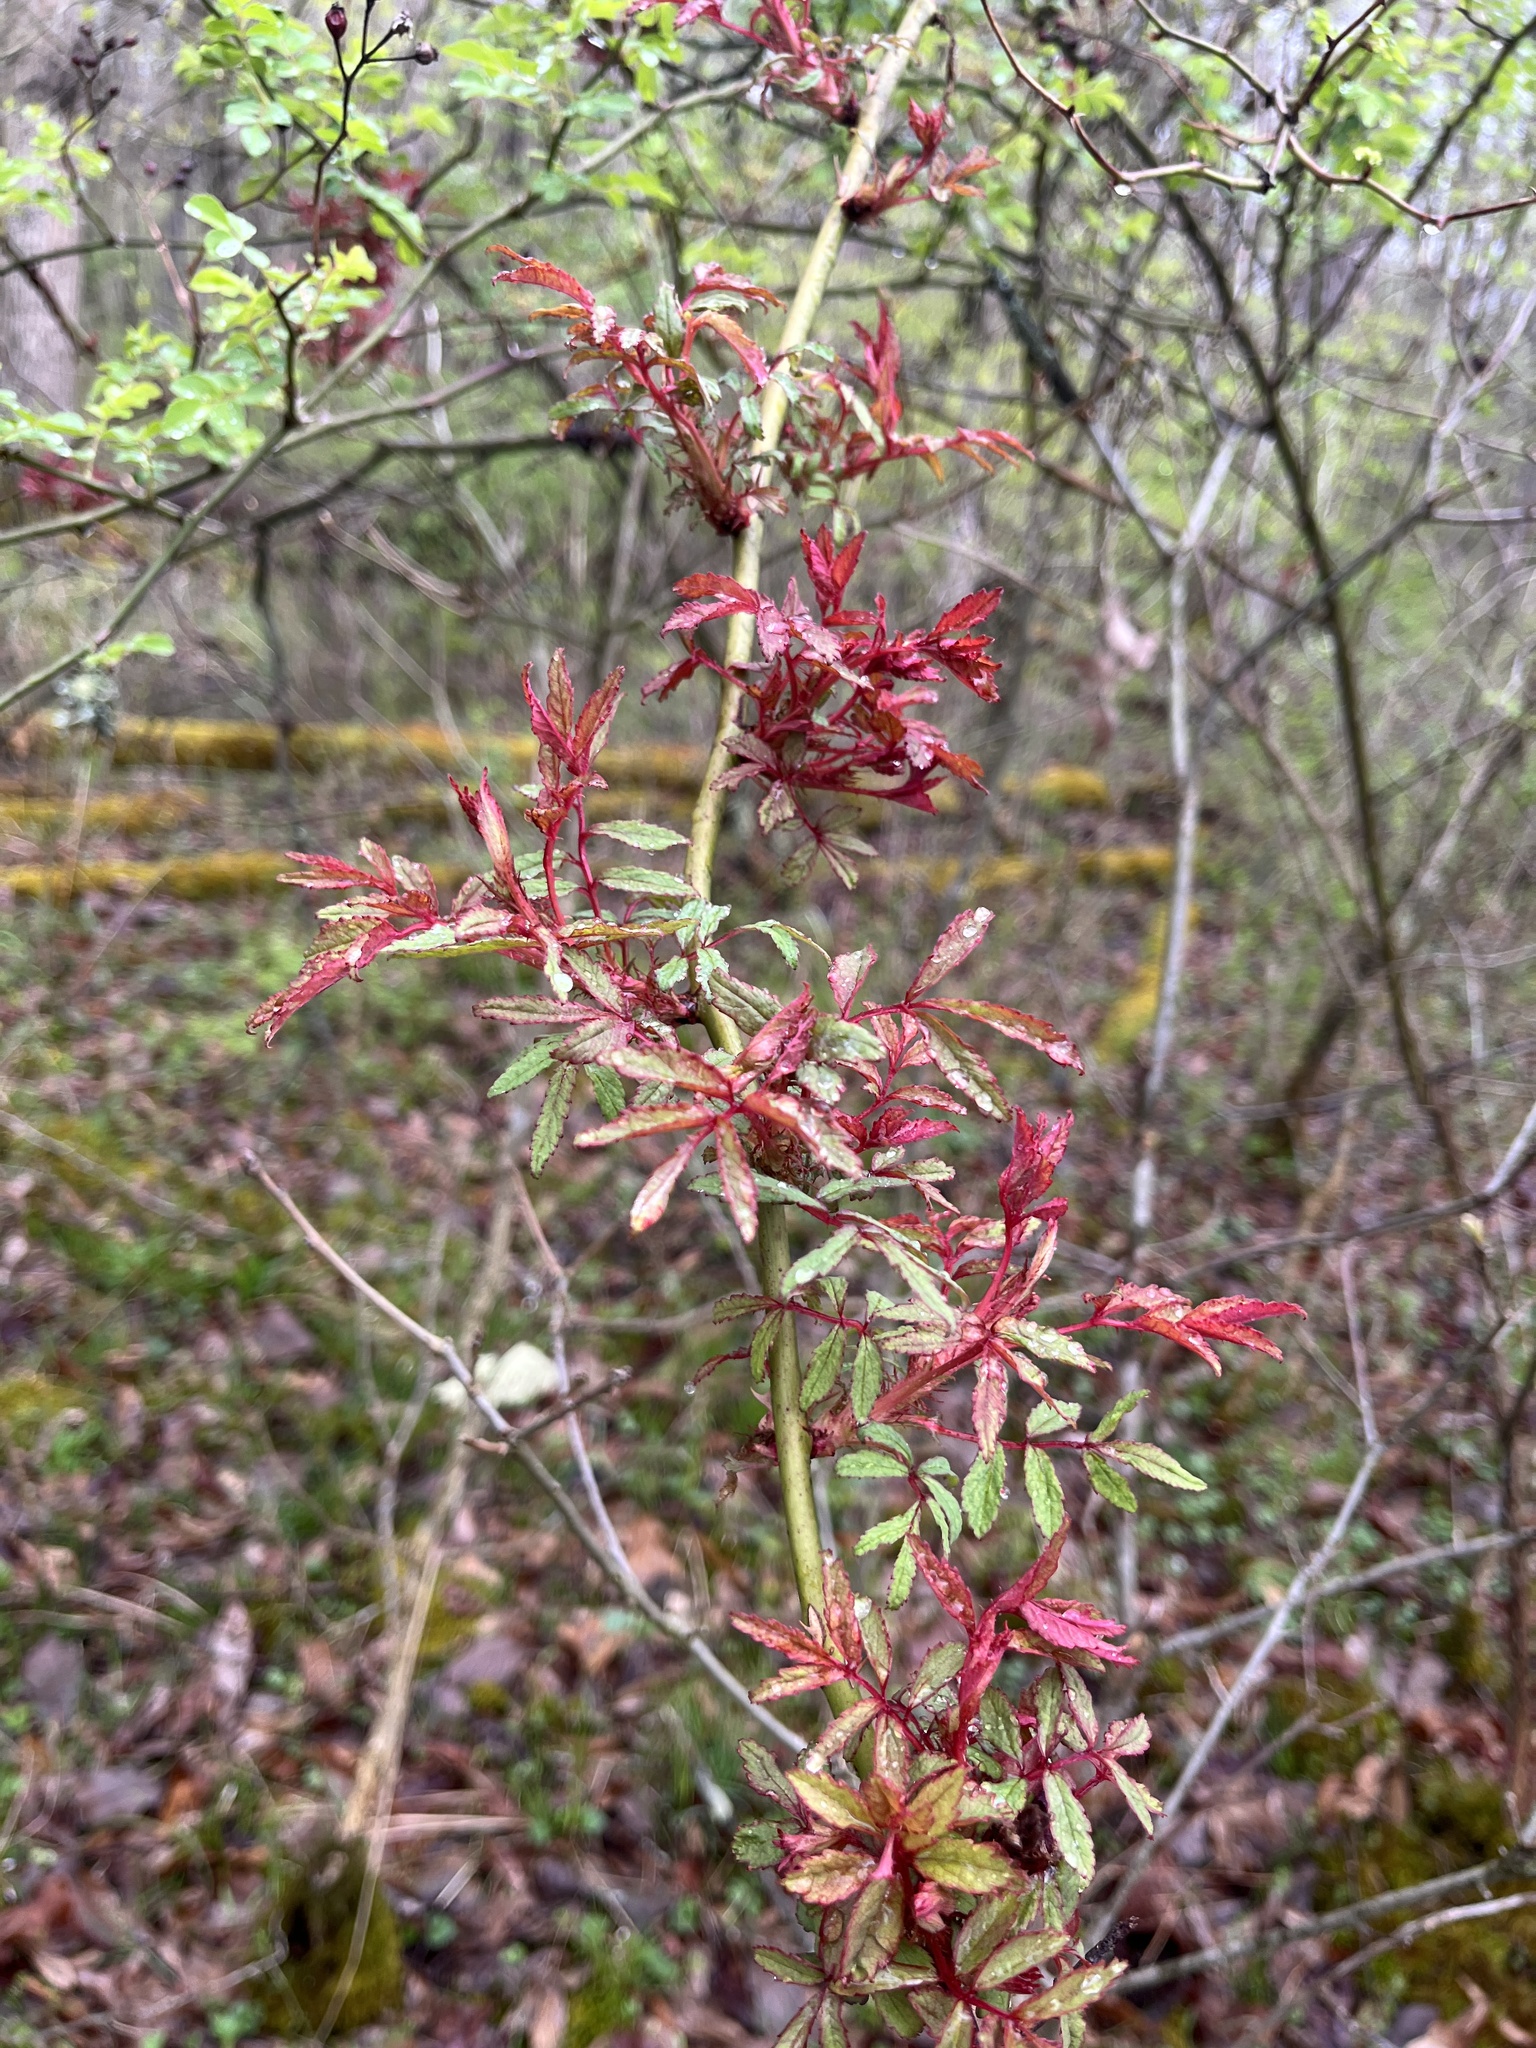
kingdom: Viruses
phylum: Negarnaviricota
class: Ellioviricetes
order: Bunyavirales
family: Fimoviridae
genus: Emaravirus
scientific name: Emaravirus rosae
